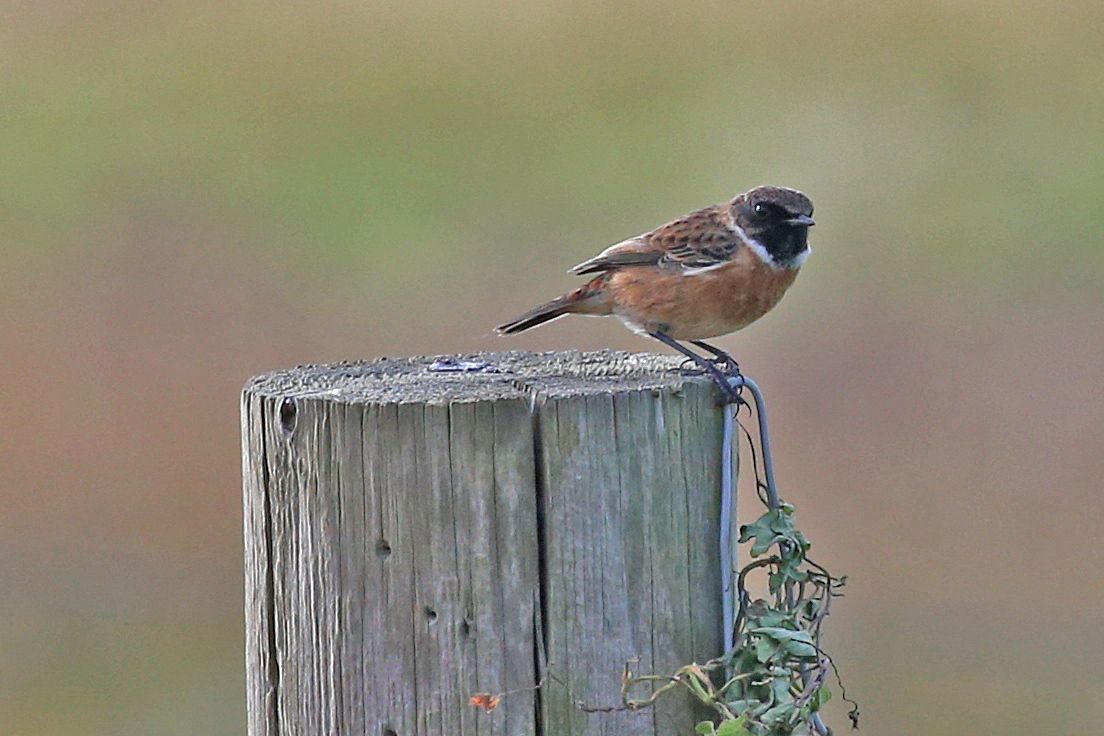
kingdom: Animalia
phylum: Chordata
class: Aves
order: Passeriformes
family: Muscicapidae
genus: Saxicola
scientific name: Saxicola rubicola
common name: European stonechat
